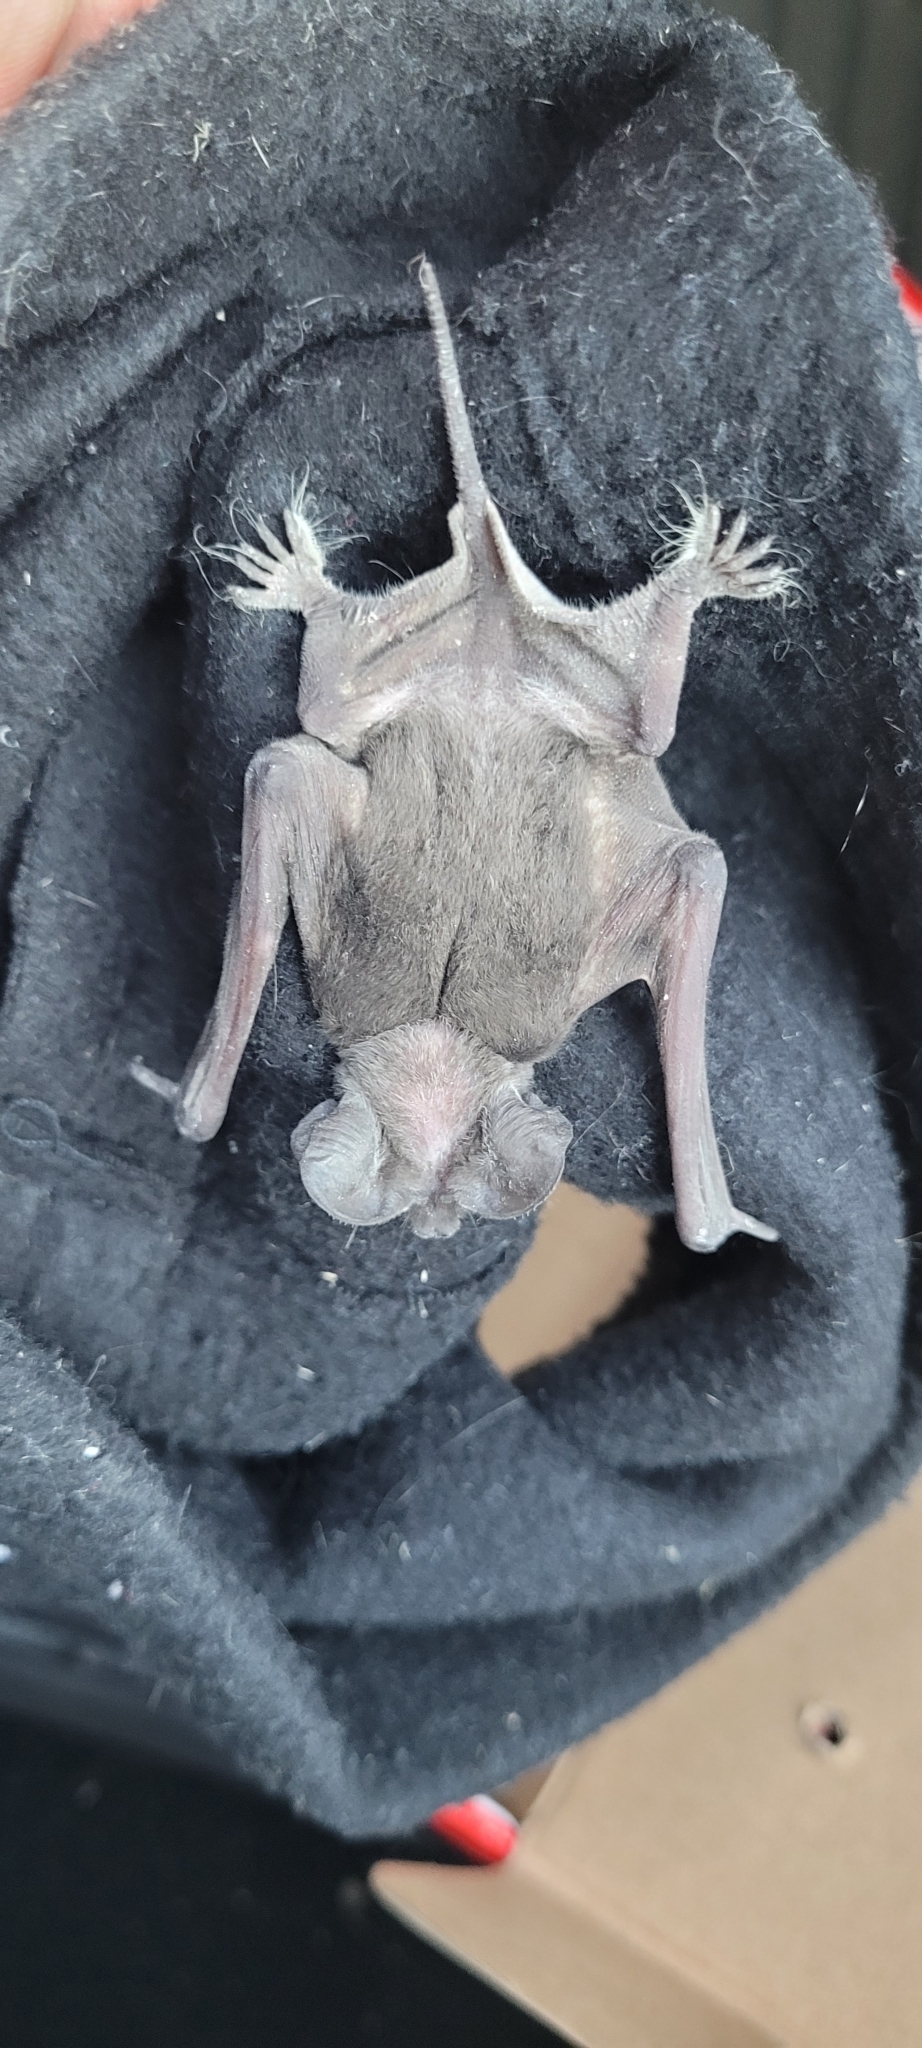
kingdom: Animalia
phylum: Chordata
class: Mammalia
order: Chiroptera
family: Molossidae
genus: Tadarida
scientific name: Tadarida brasiliensis
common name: Mexican free-tailed bat
